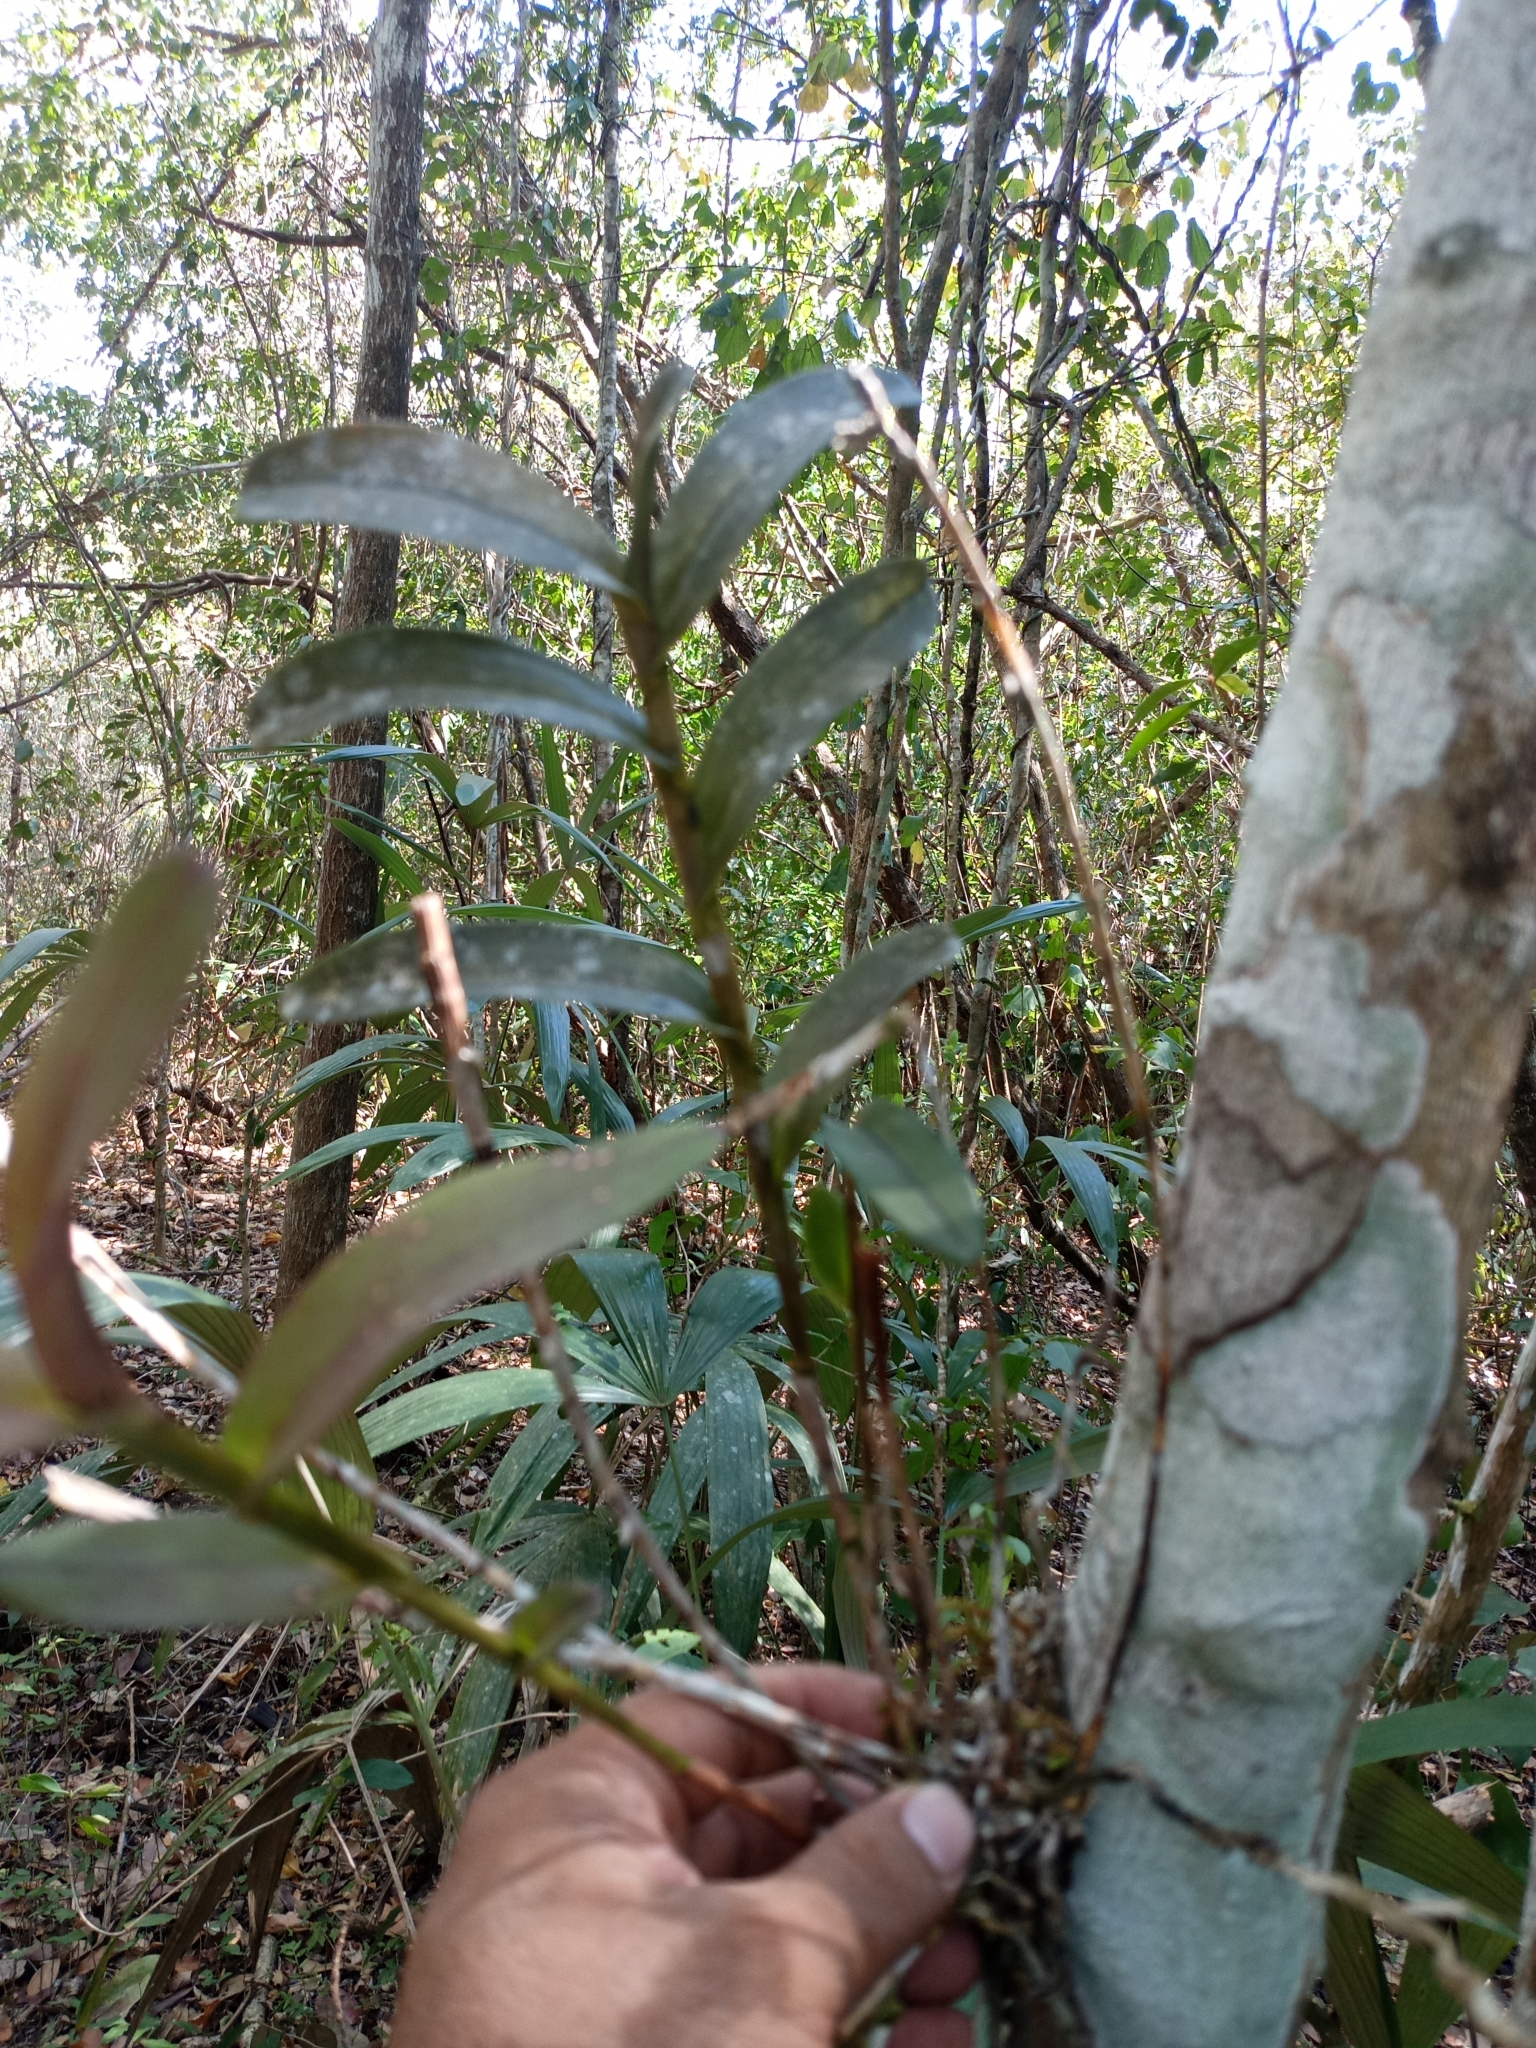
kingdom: Plantae
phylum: Tracheophyta
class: Liliopsida
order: Asparagales
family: Orchidaceae
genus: Epidendrum
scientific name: Epidendrum galeottianum
